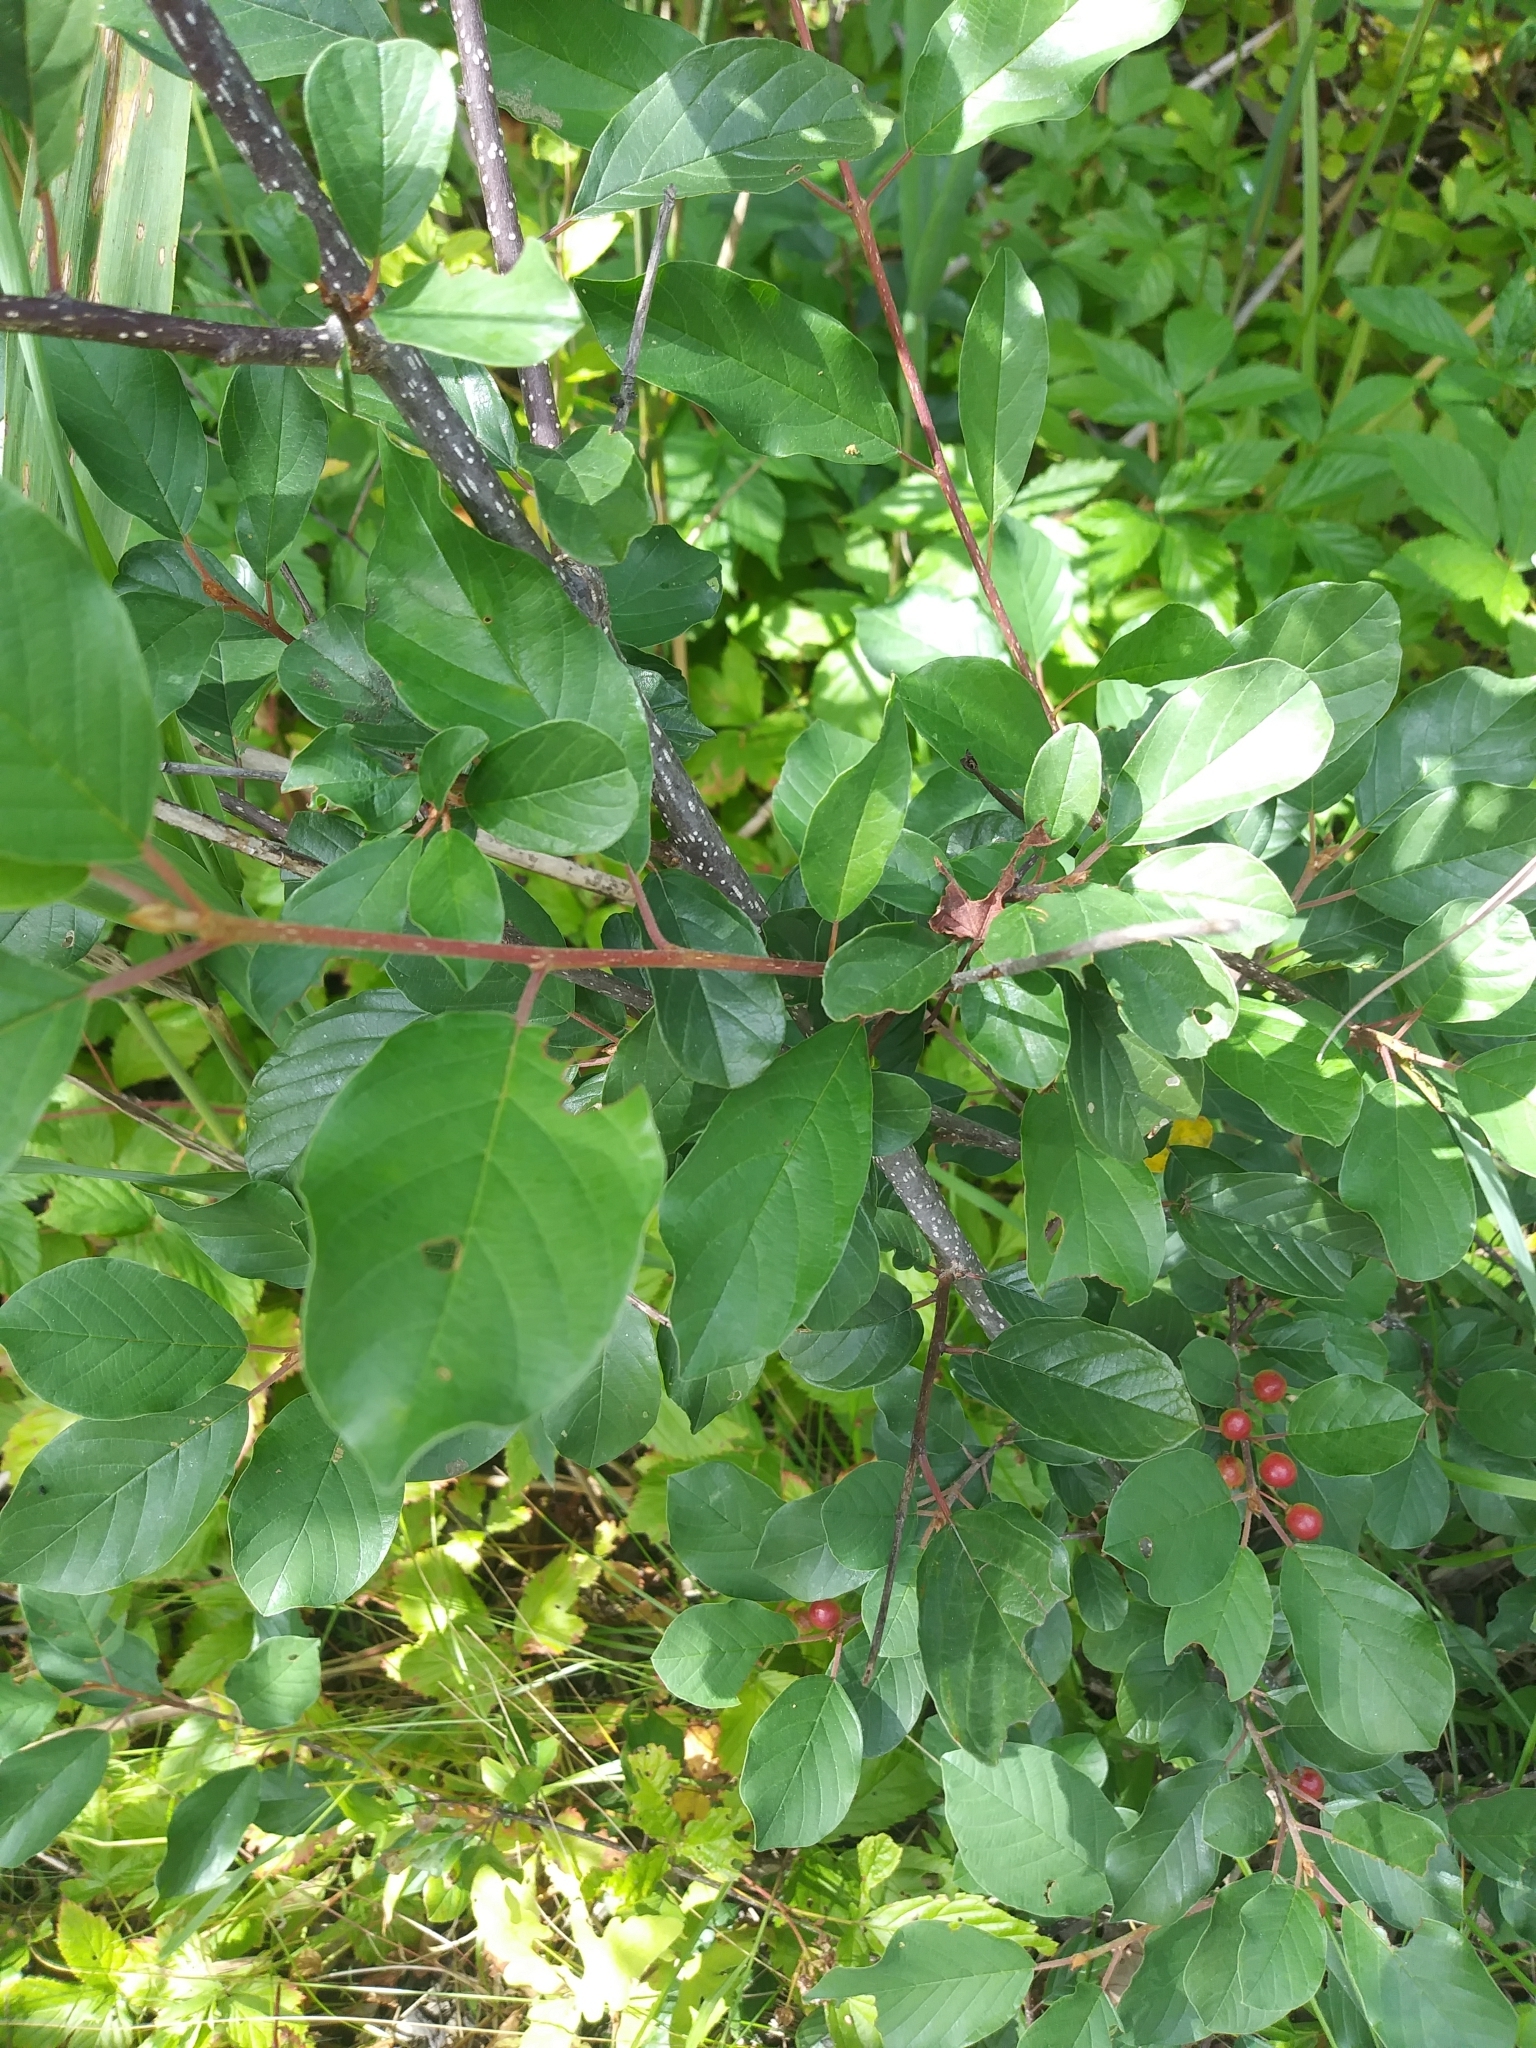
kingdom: Plantae
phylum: Tracheophyta
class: Magnoliopsida
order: Rosales
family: Rhamnaceae
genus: Frangula
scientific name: Frangula alnus
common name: Alder buckthorn
